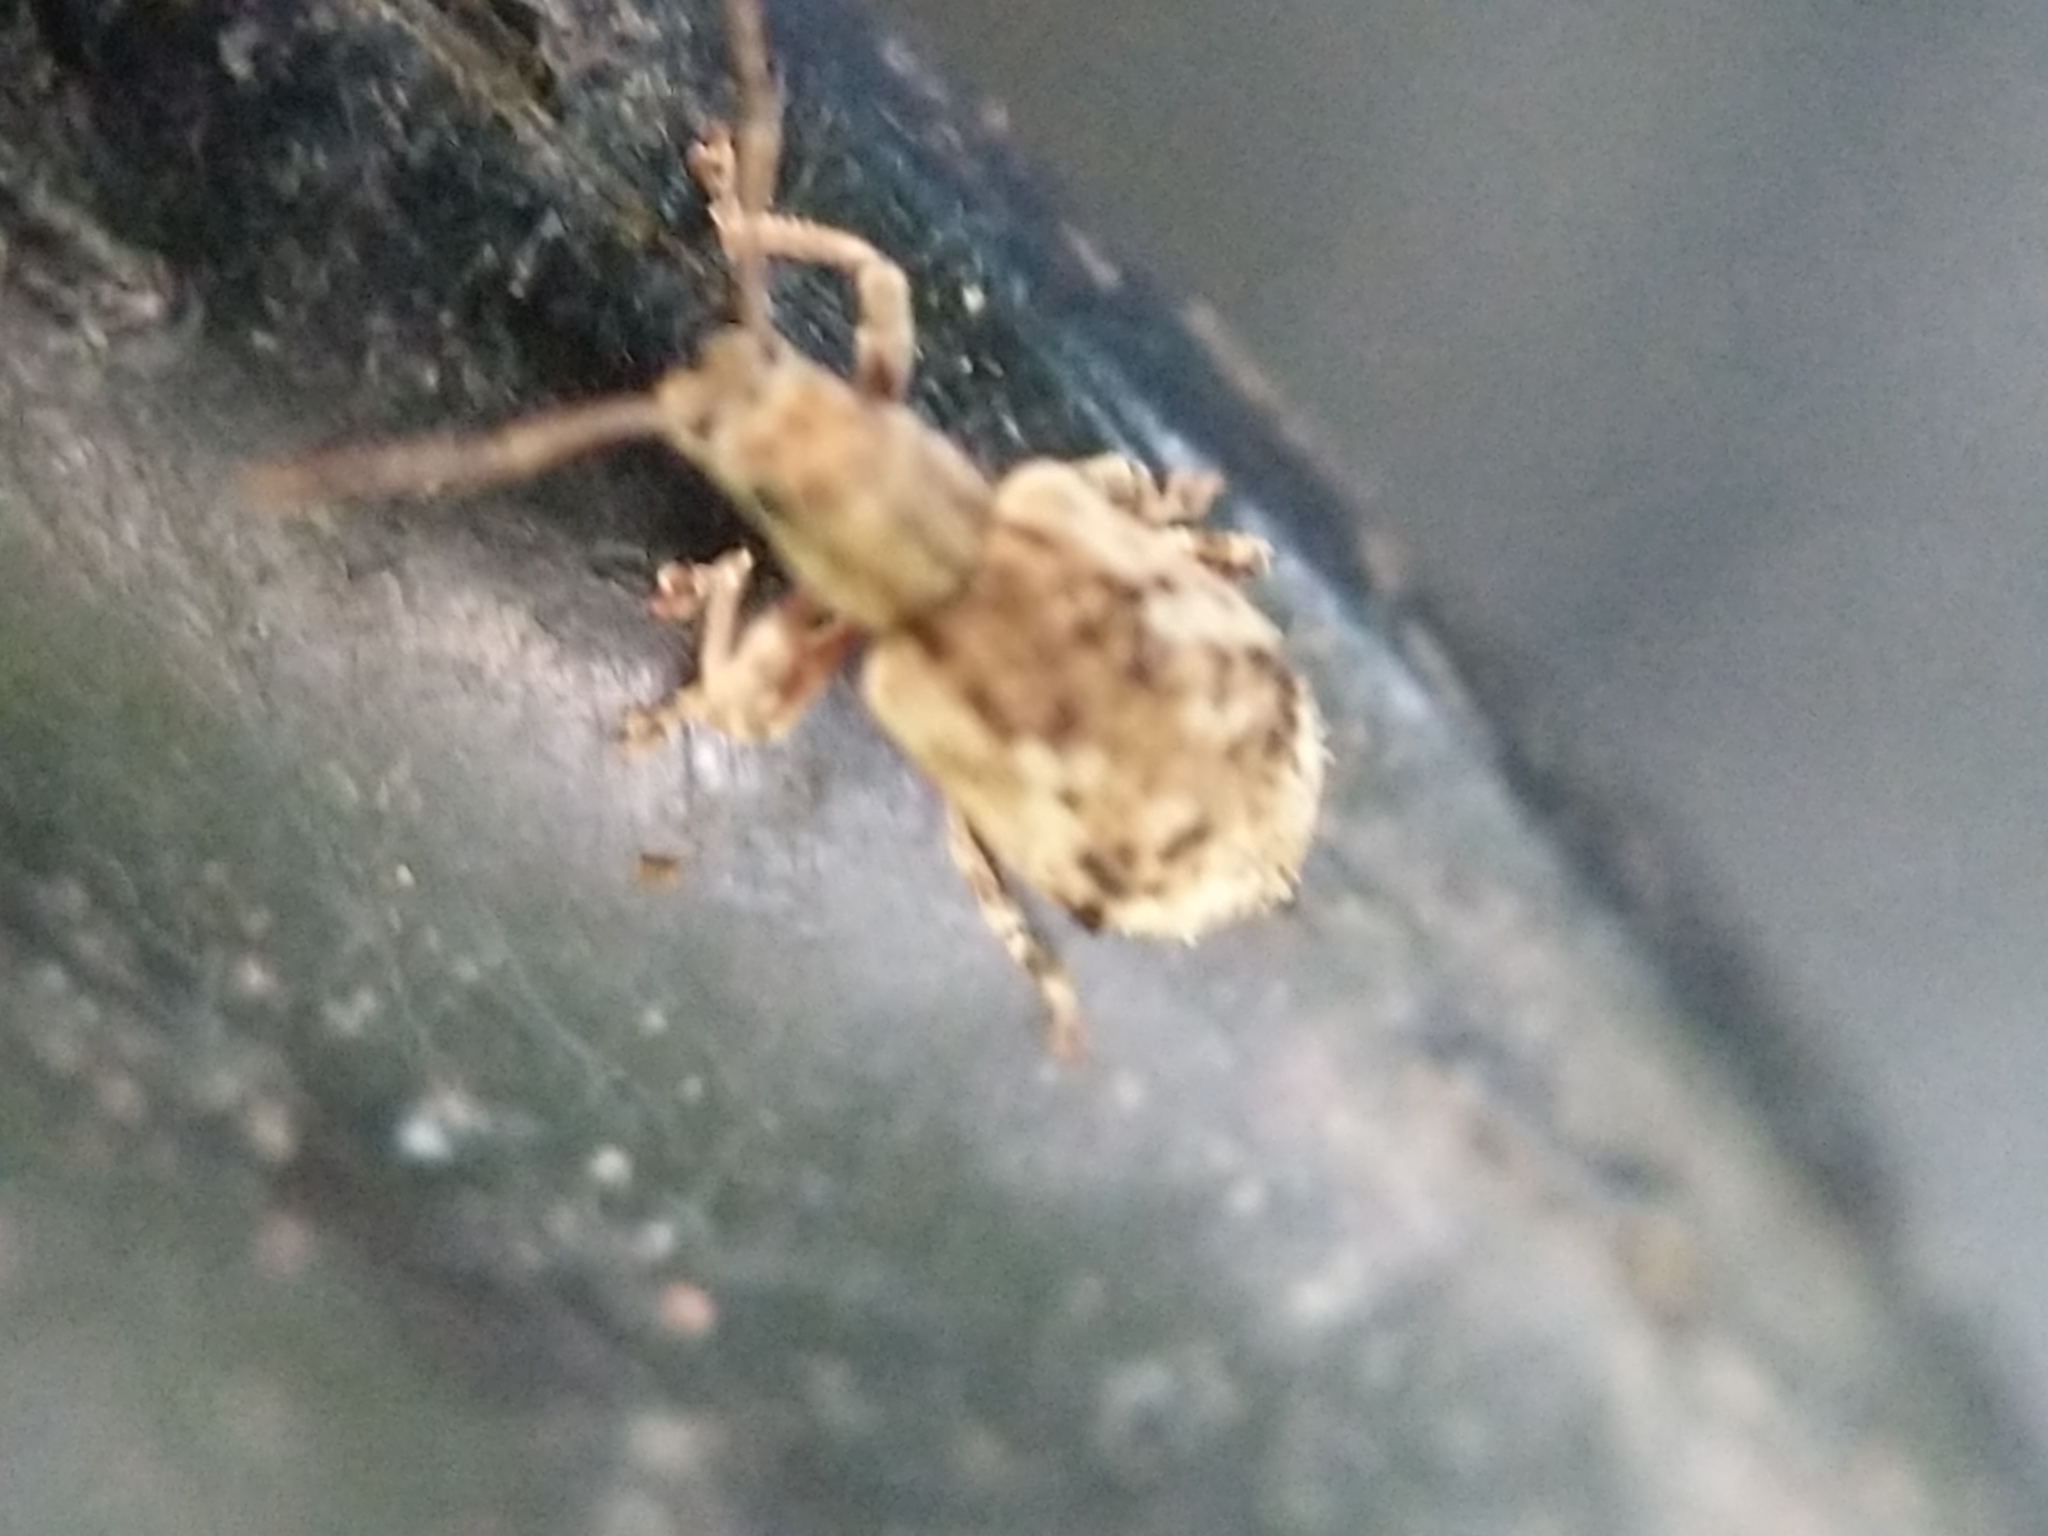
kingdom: Animalia
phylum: Arthropoda
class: Insecta
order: Coleoptera
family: Curculionidae
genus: Pseudoedophrys
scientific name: Pseudoedophrys hilleri
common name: Weevil
